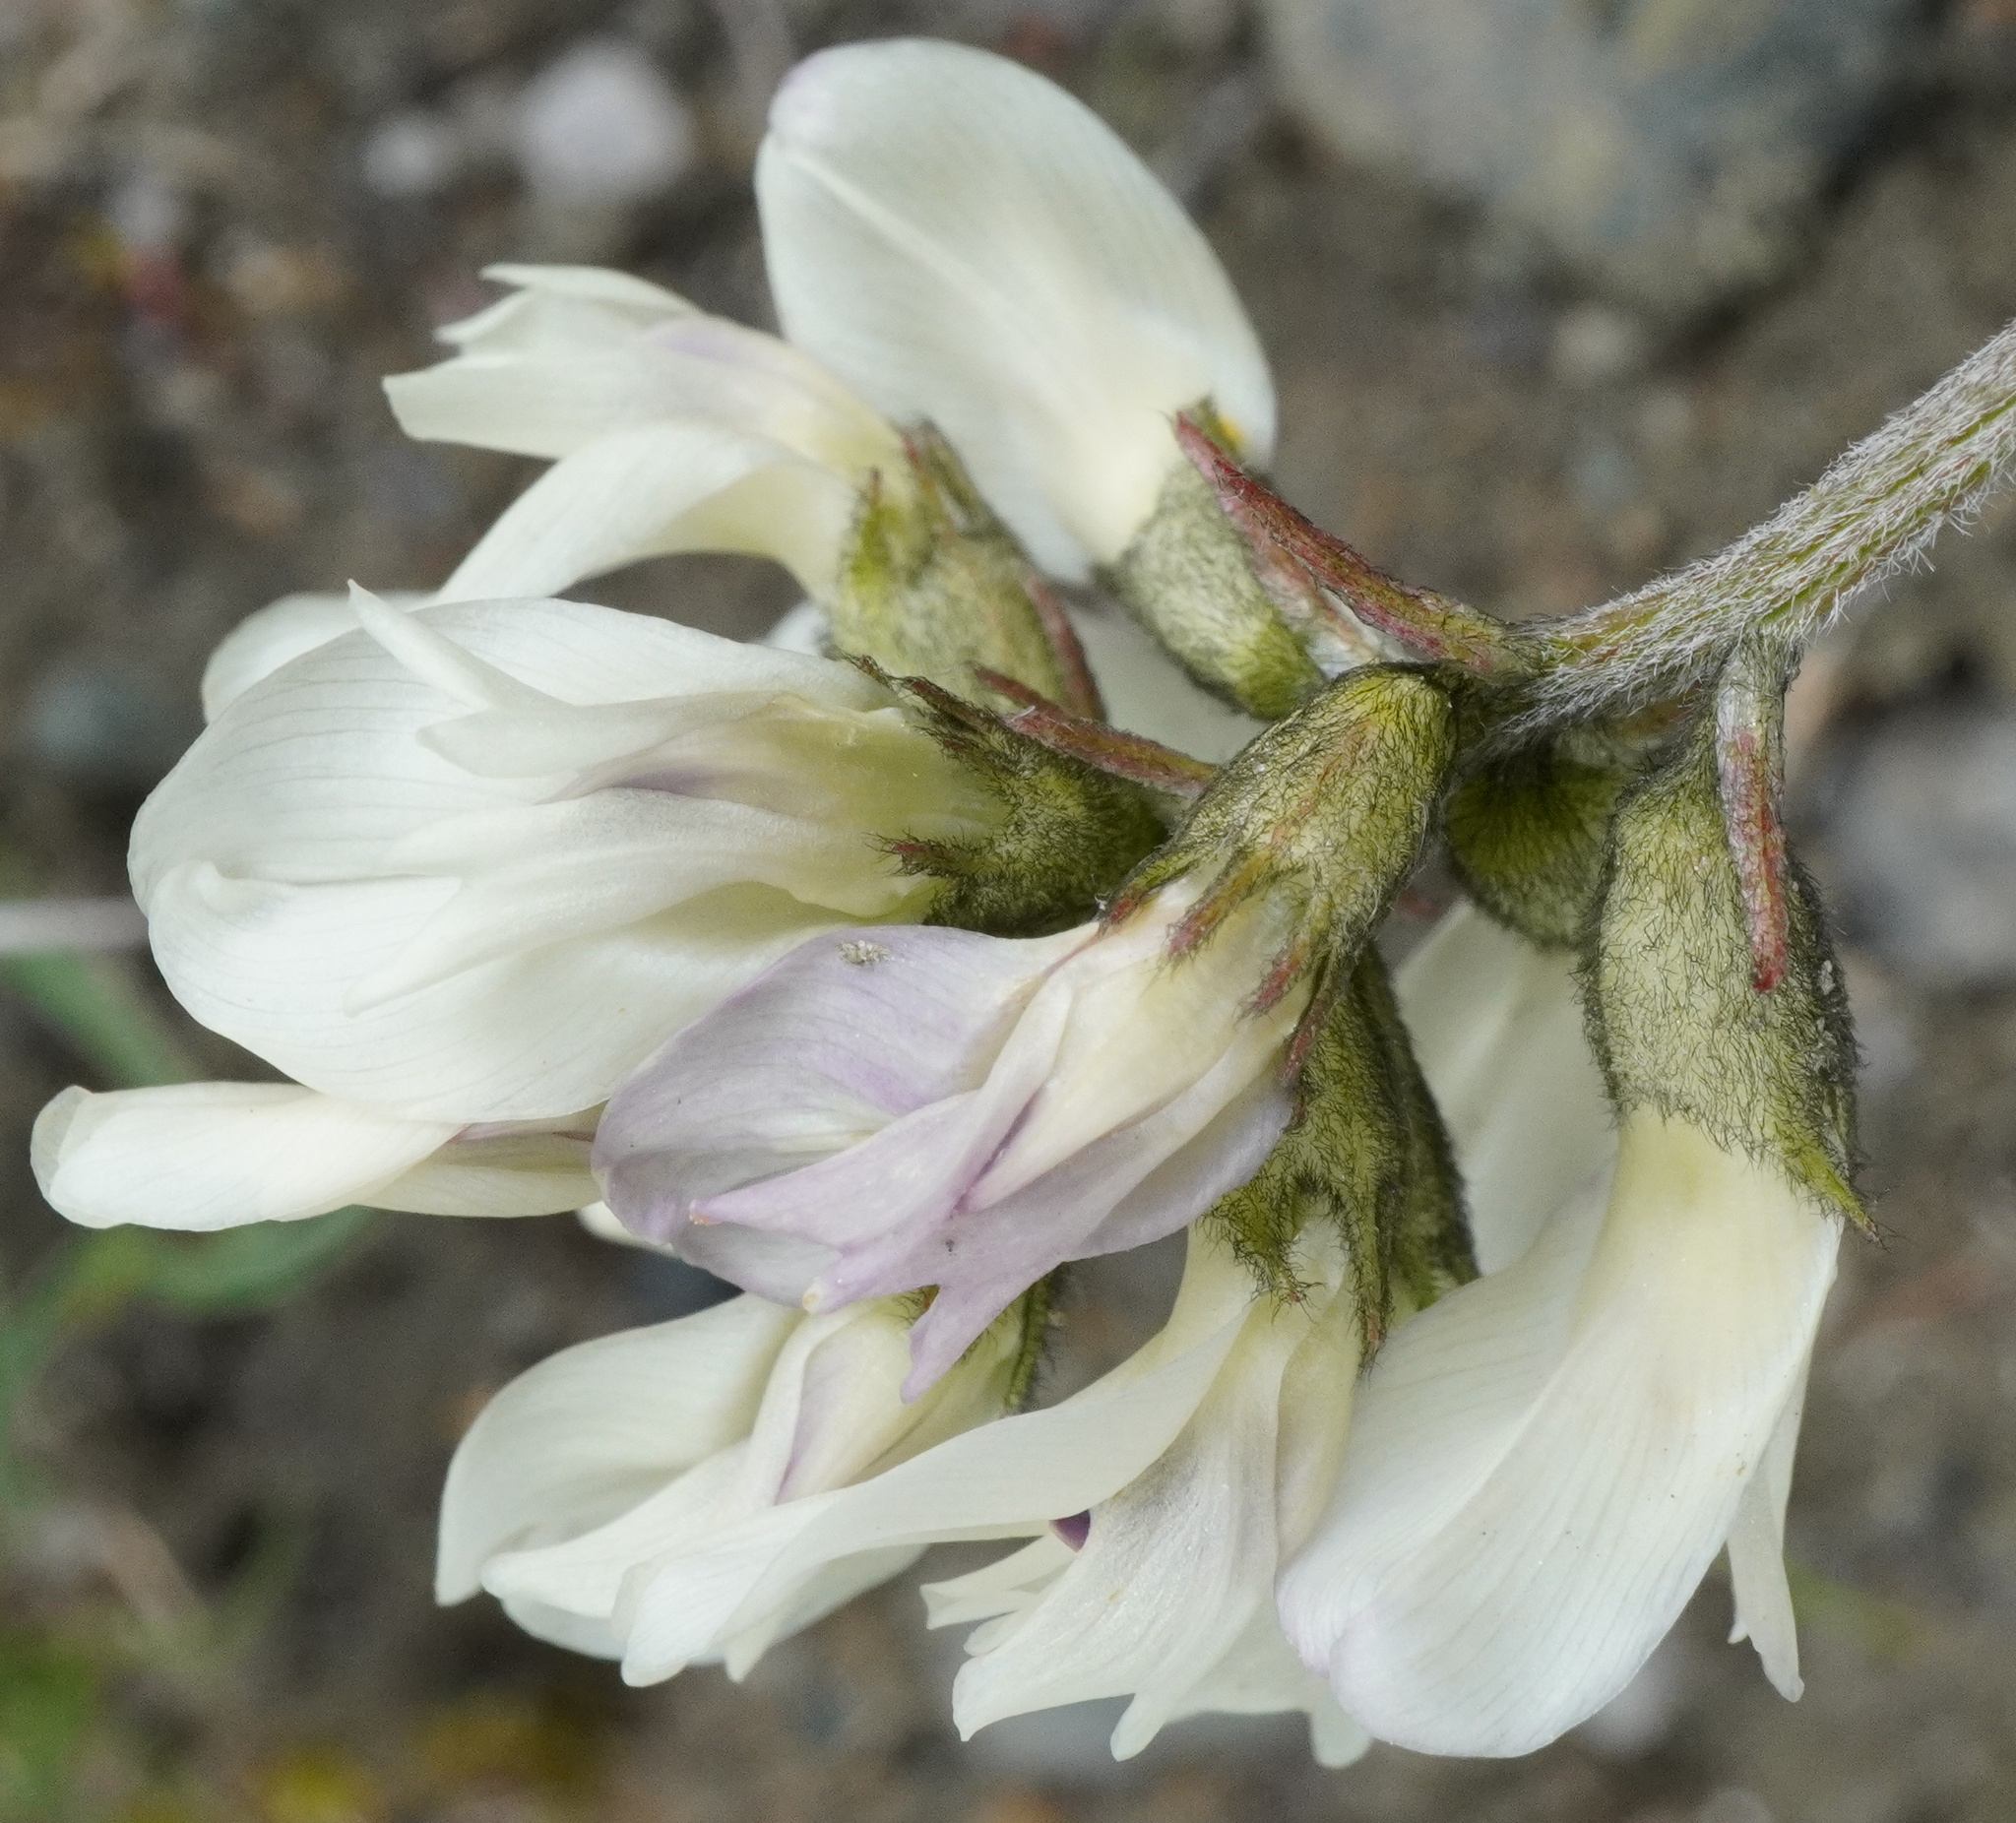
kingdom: Plantae
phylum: Tracheophyta
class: Magnoliopsida
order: Fabales
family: Fabaceae
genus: Astragalus
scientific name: Astragalus australis
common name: Indian milk-vetch
